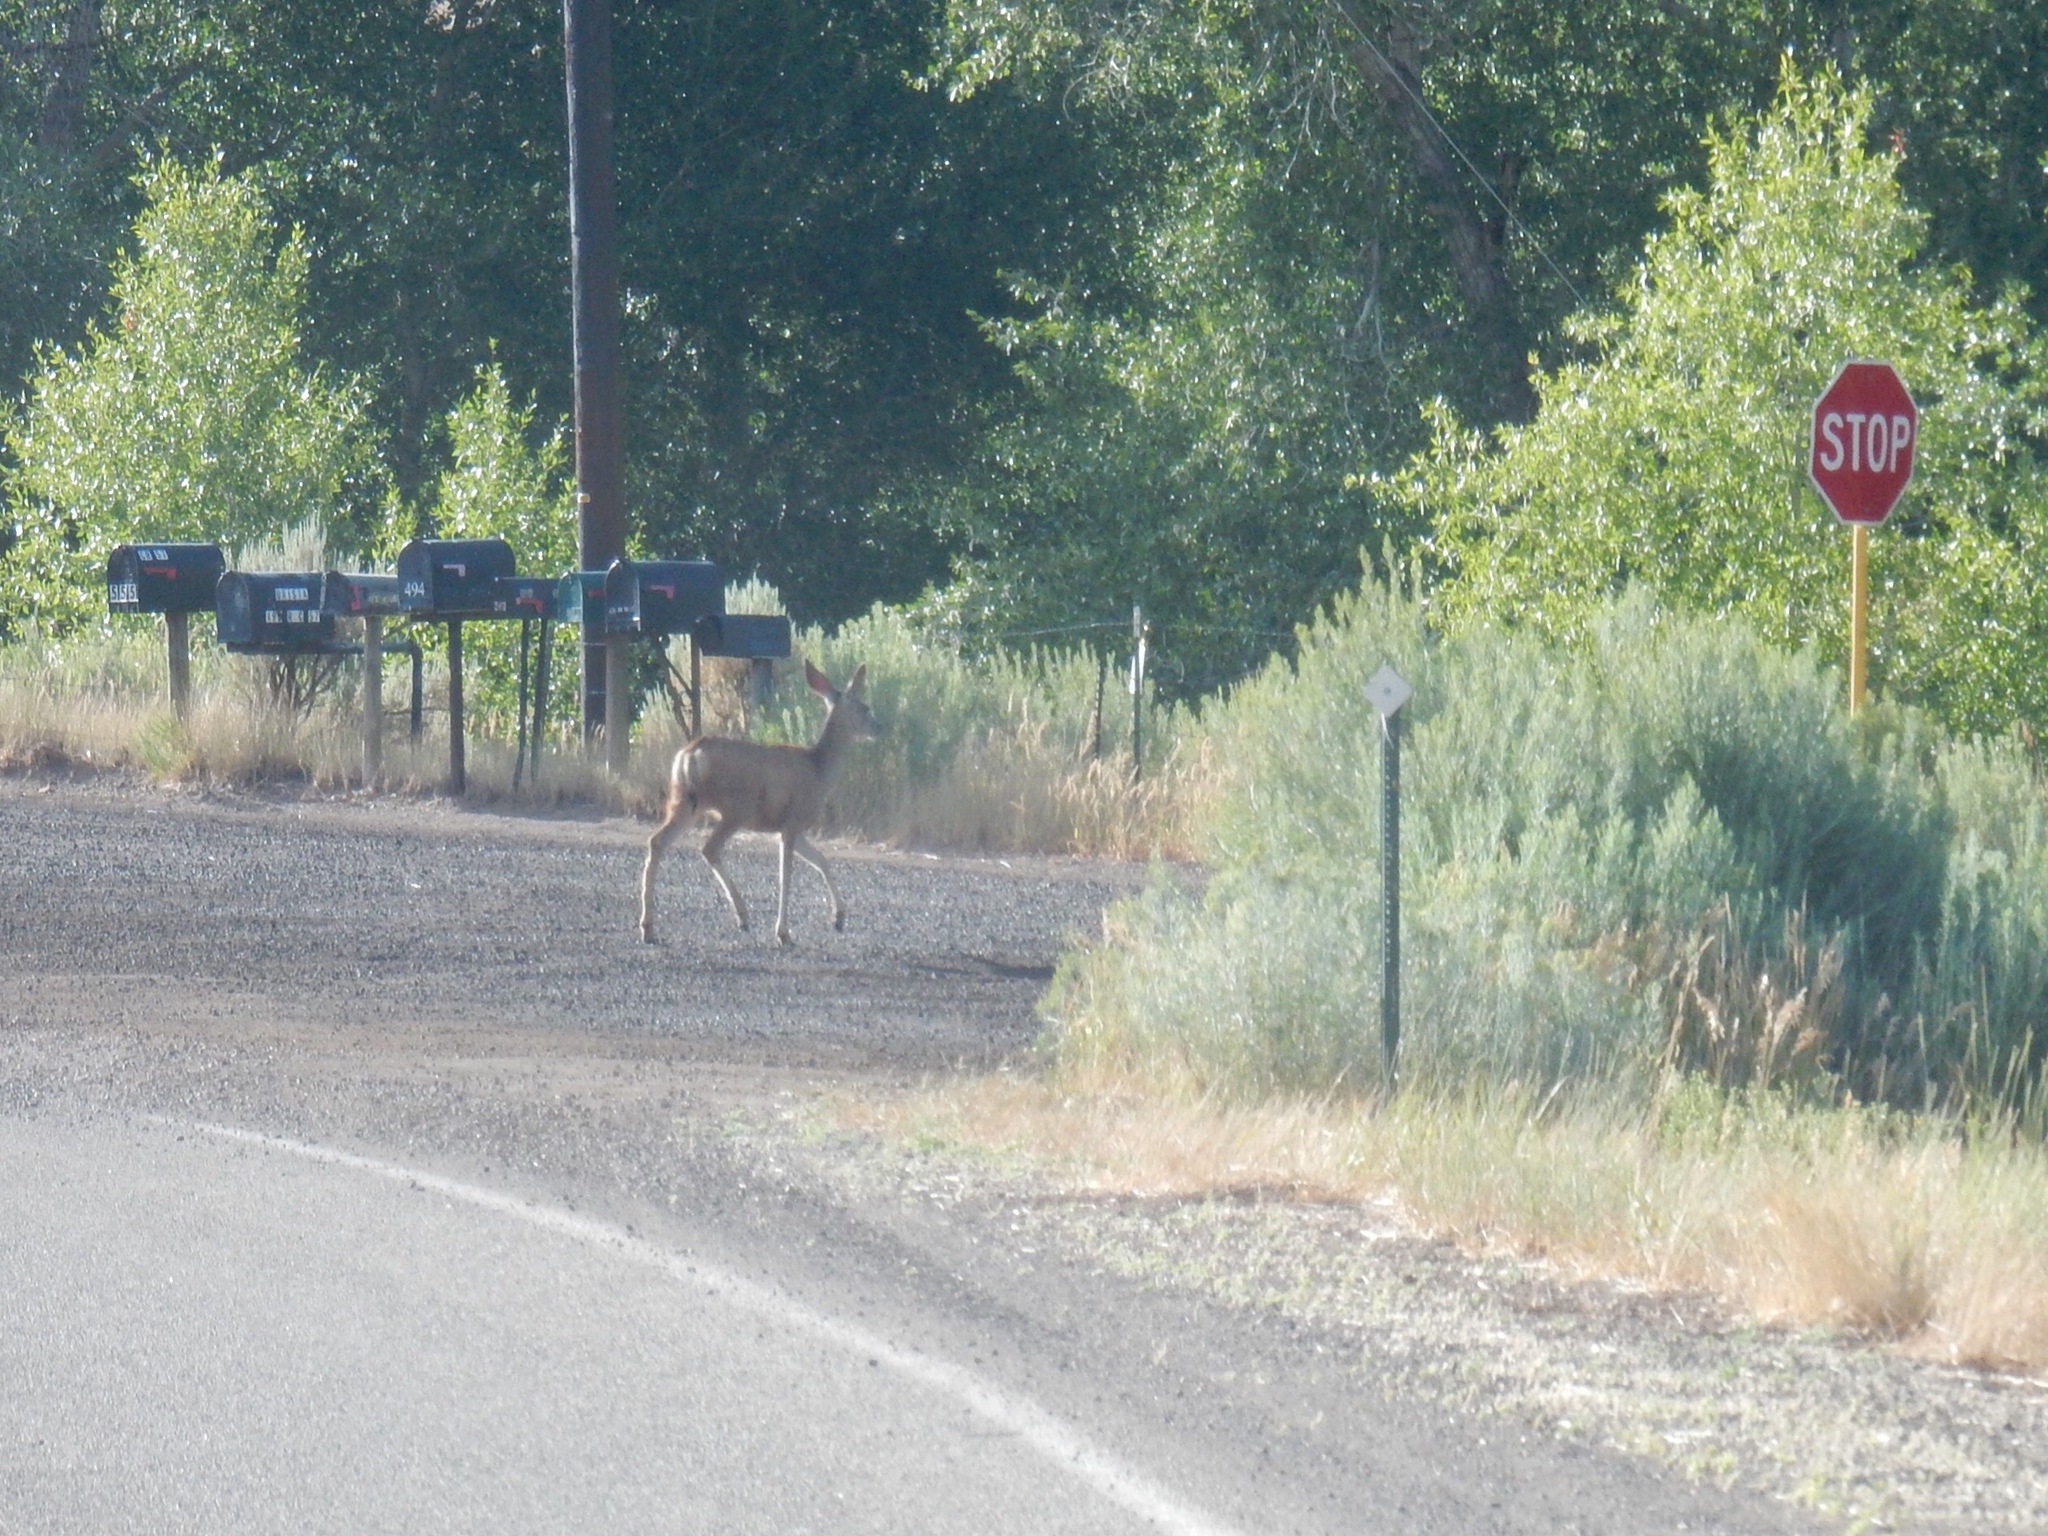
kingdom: Animalia
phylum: Chordata
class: Mammalia
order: Artiodactyla
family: Cervidae
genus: Odocoileus
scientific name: Odocoileus hemionus
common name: Mule deer
